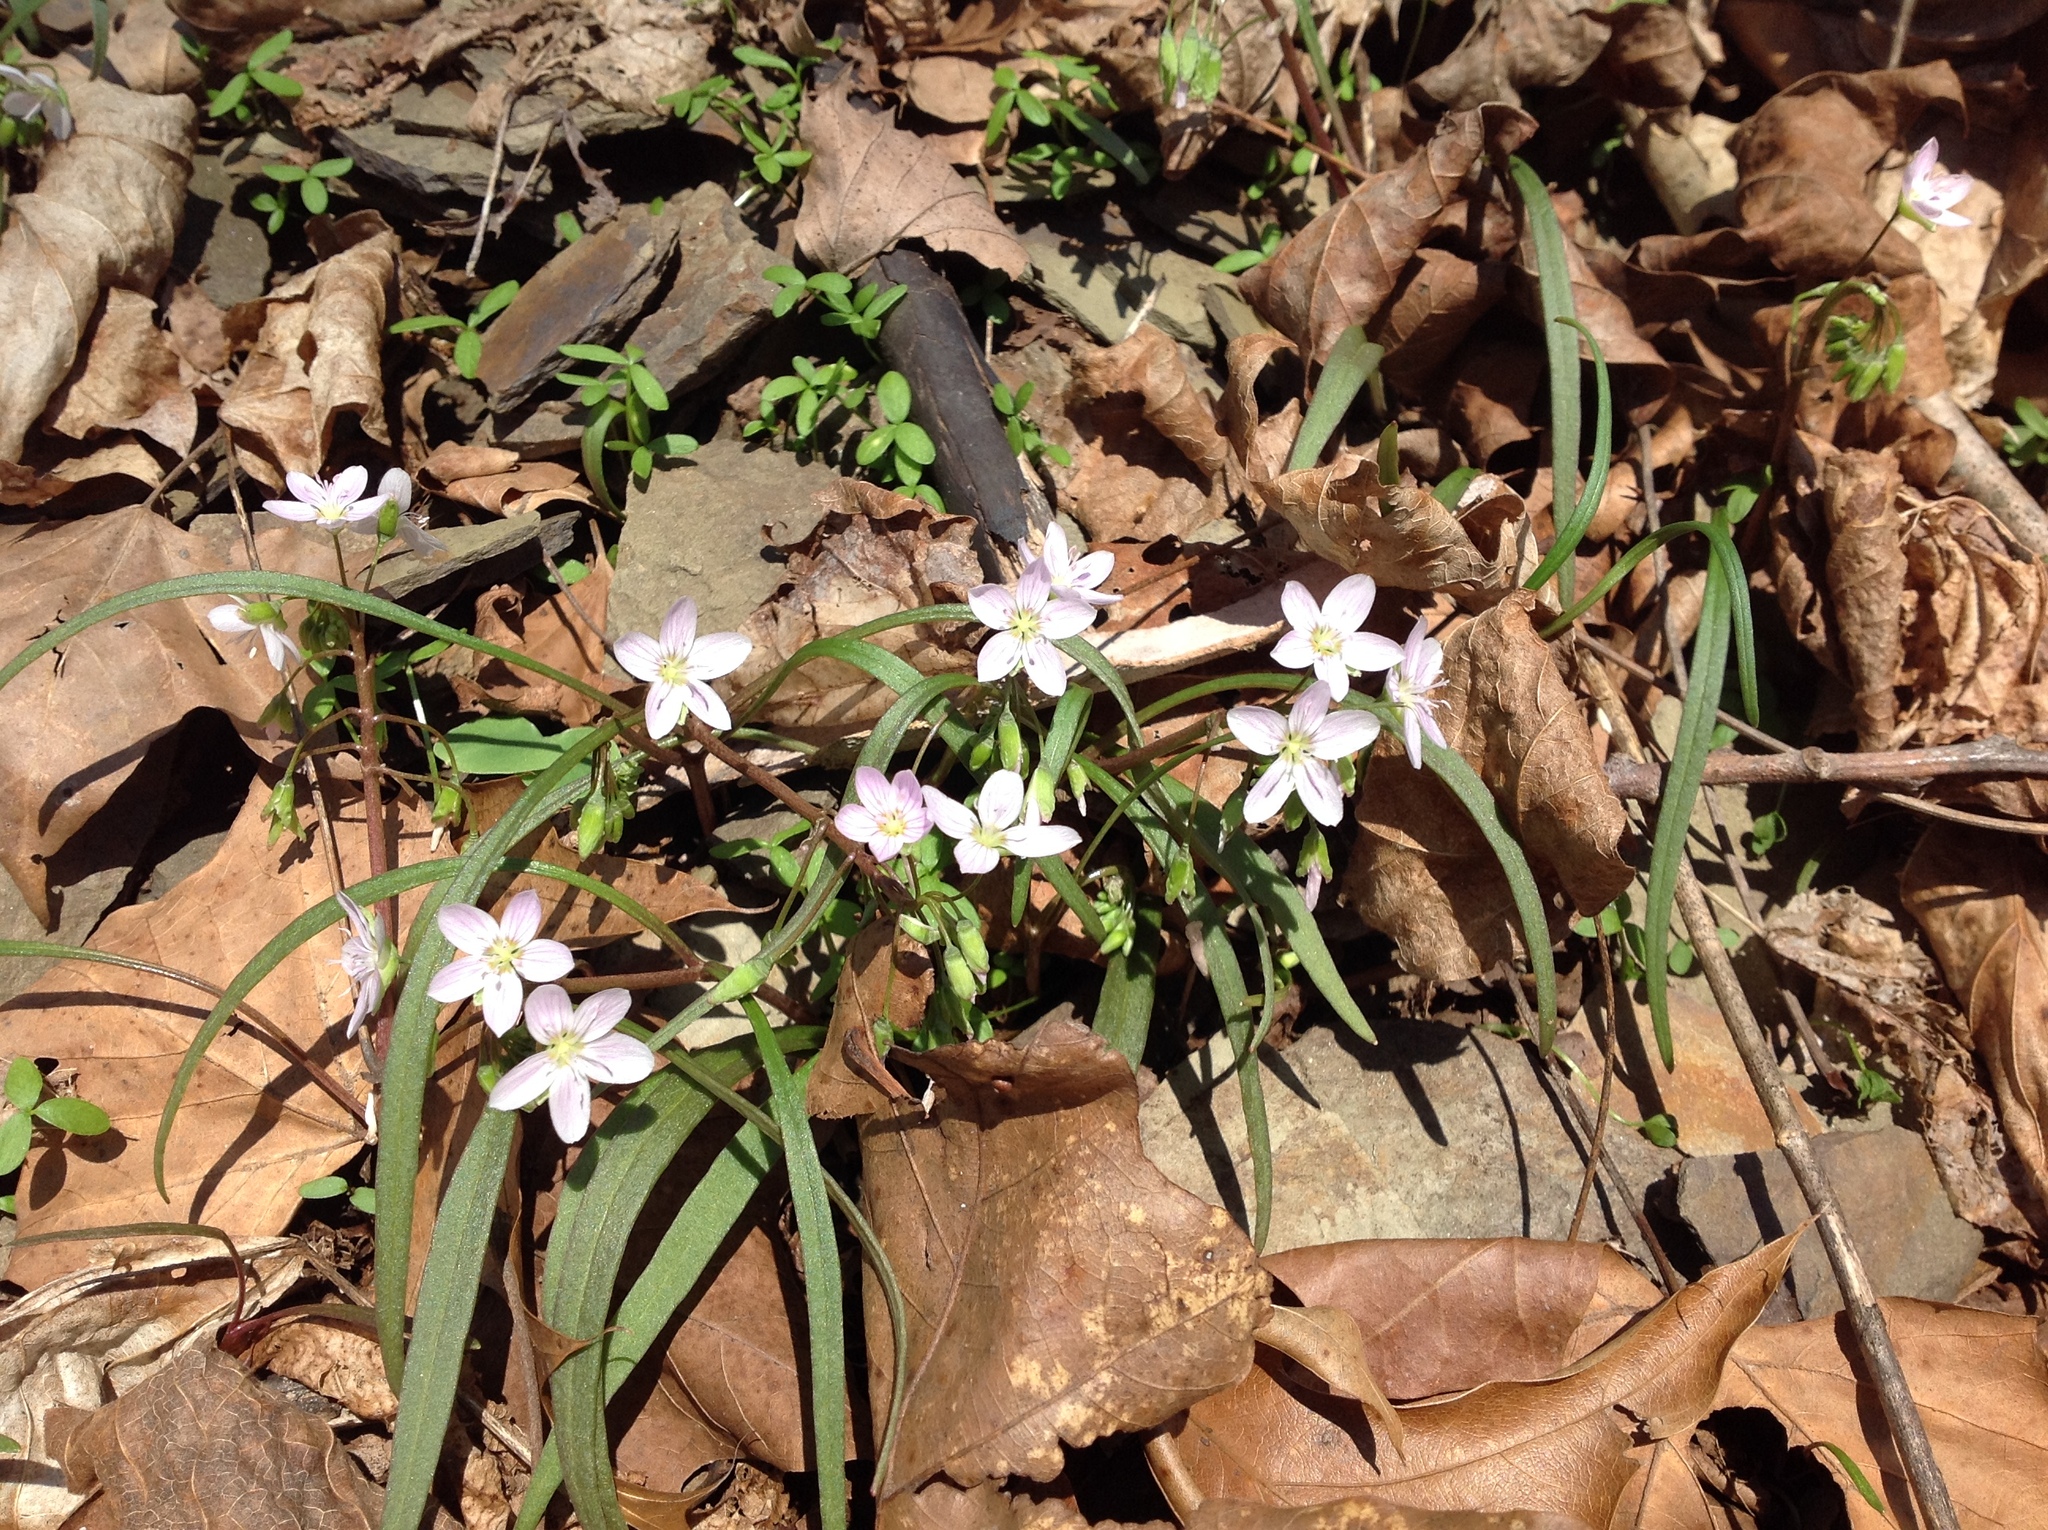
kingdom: Plantae
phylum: Tracheophyta
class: Magnoliopsida
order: Caryophyllales
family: Montiaceae
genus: Claytonia
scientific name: Claytonia virginica
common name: Virginia springbeauty
